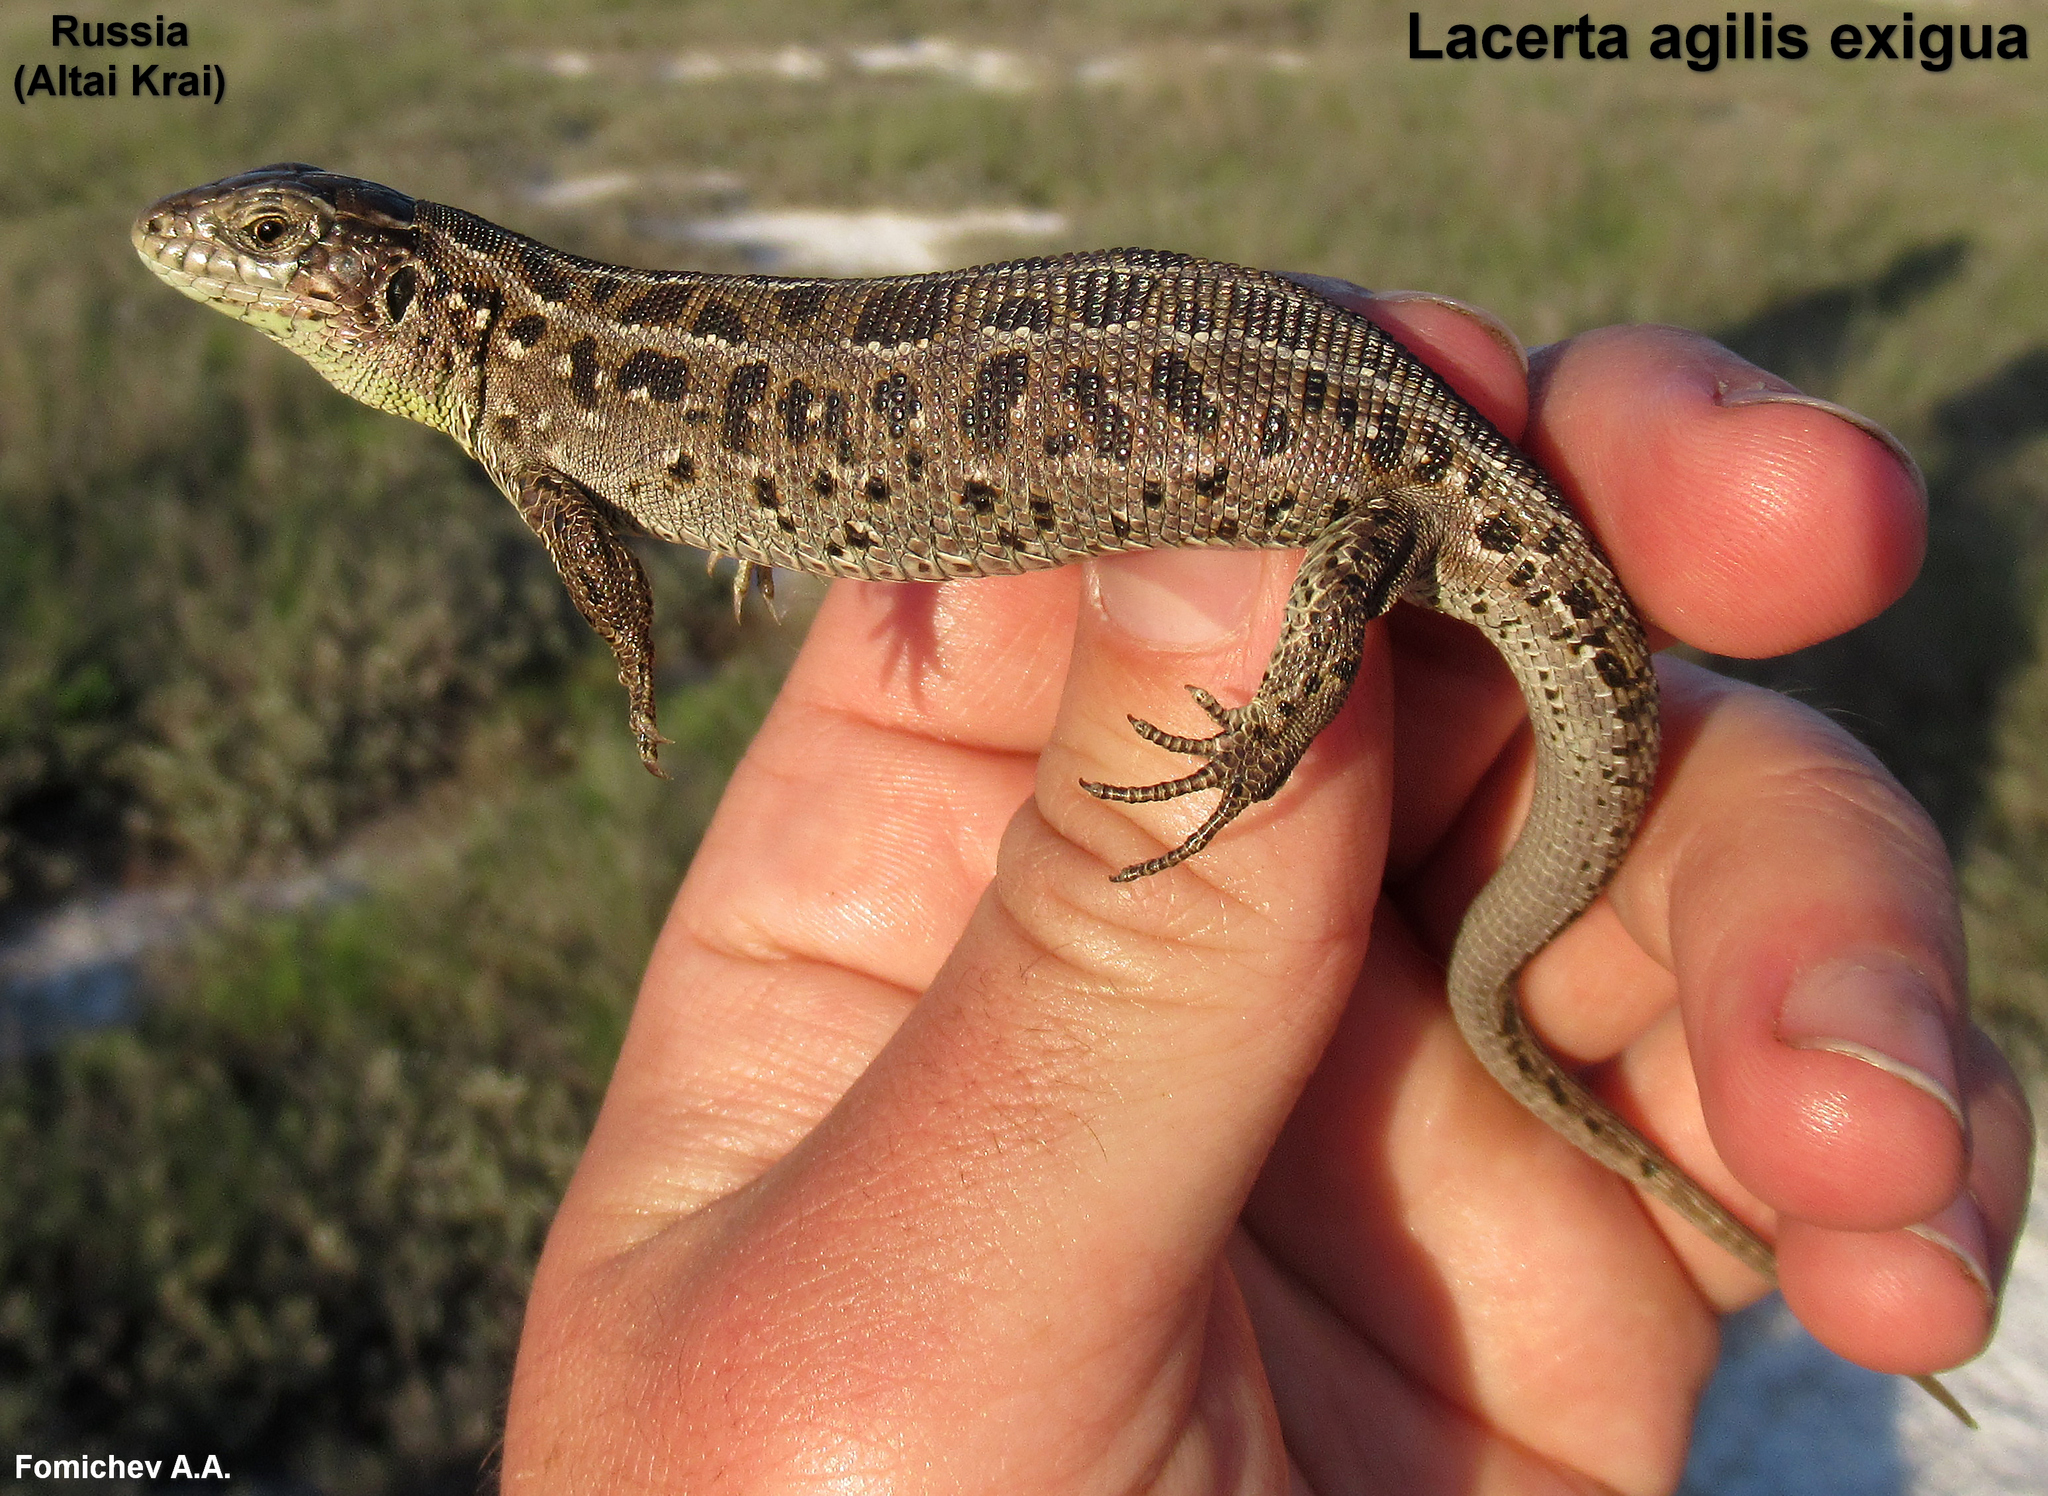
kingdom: Animalia
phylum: Chordata
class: Squamata
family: Lacertidae
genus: Lacerta
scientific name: Lacerta agilis
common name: Sand lizard
